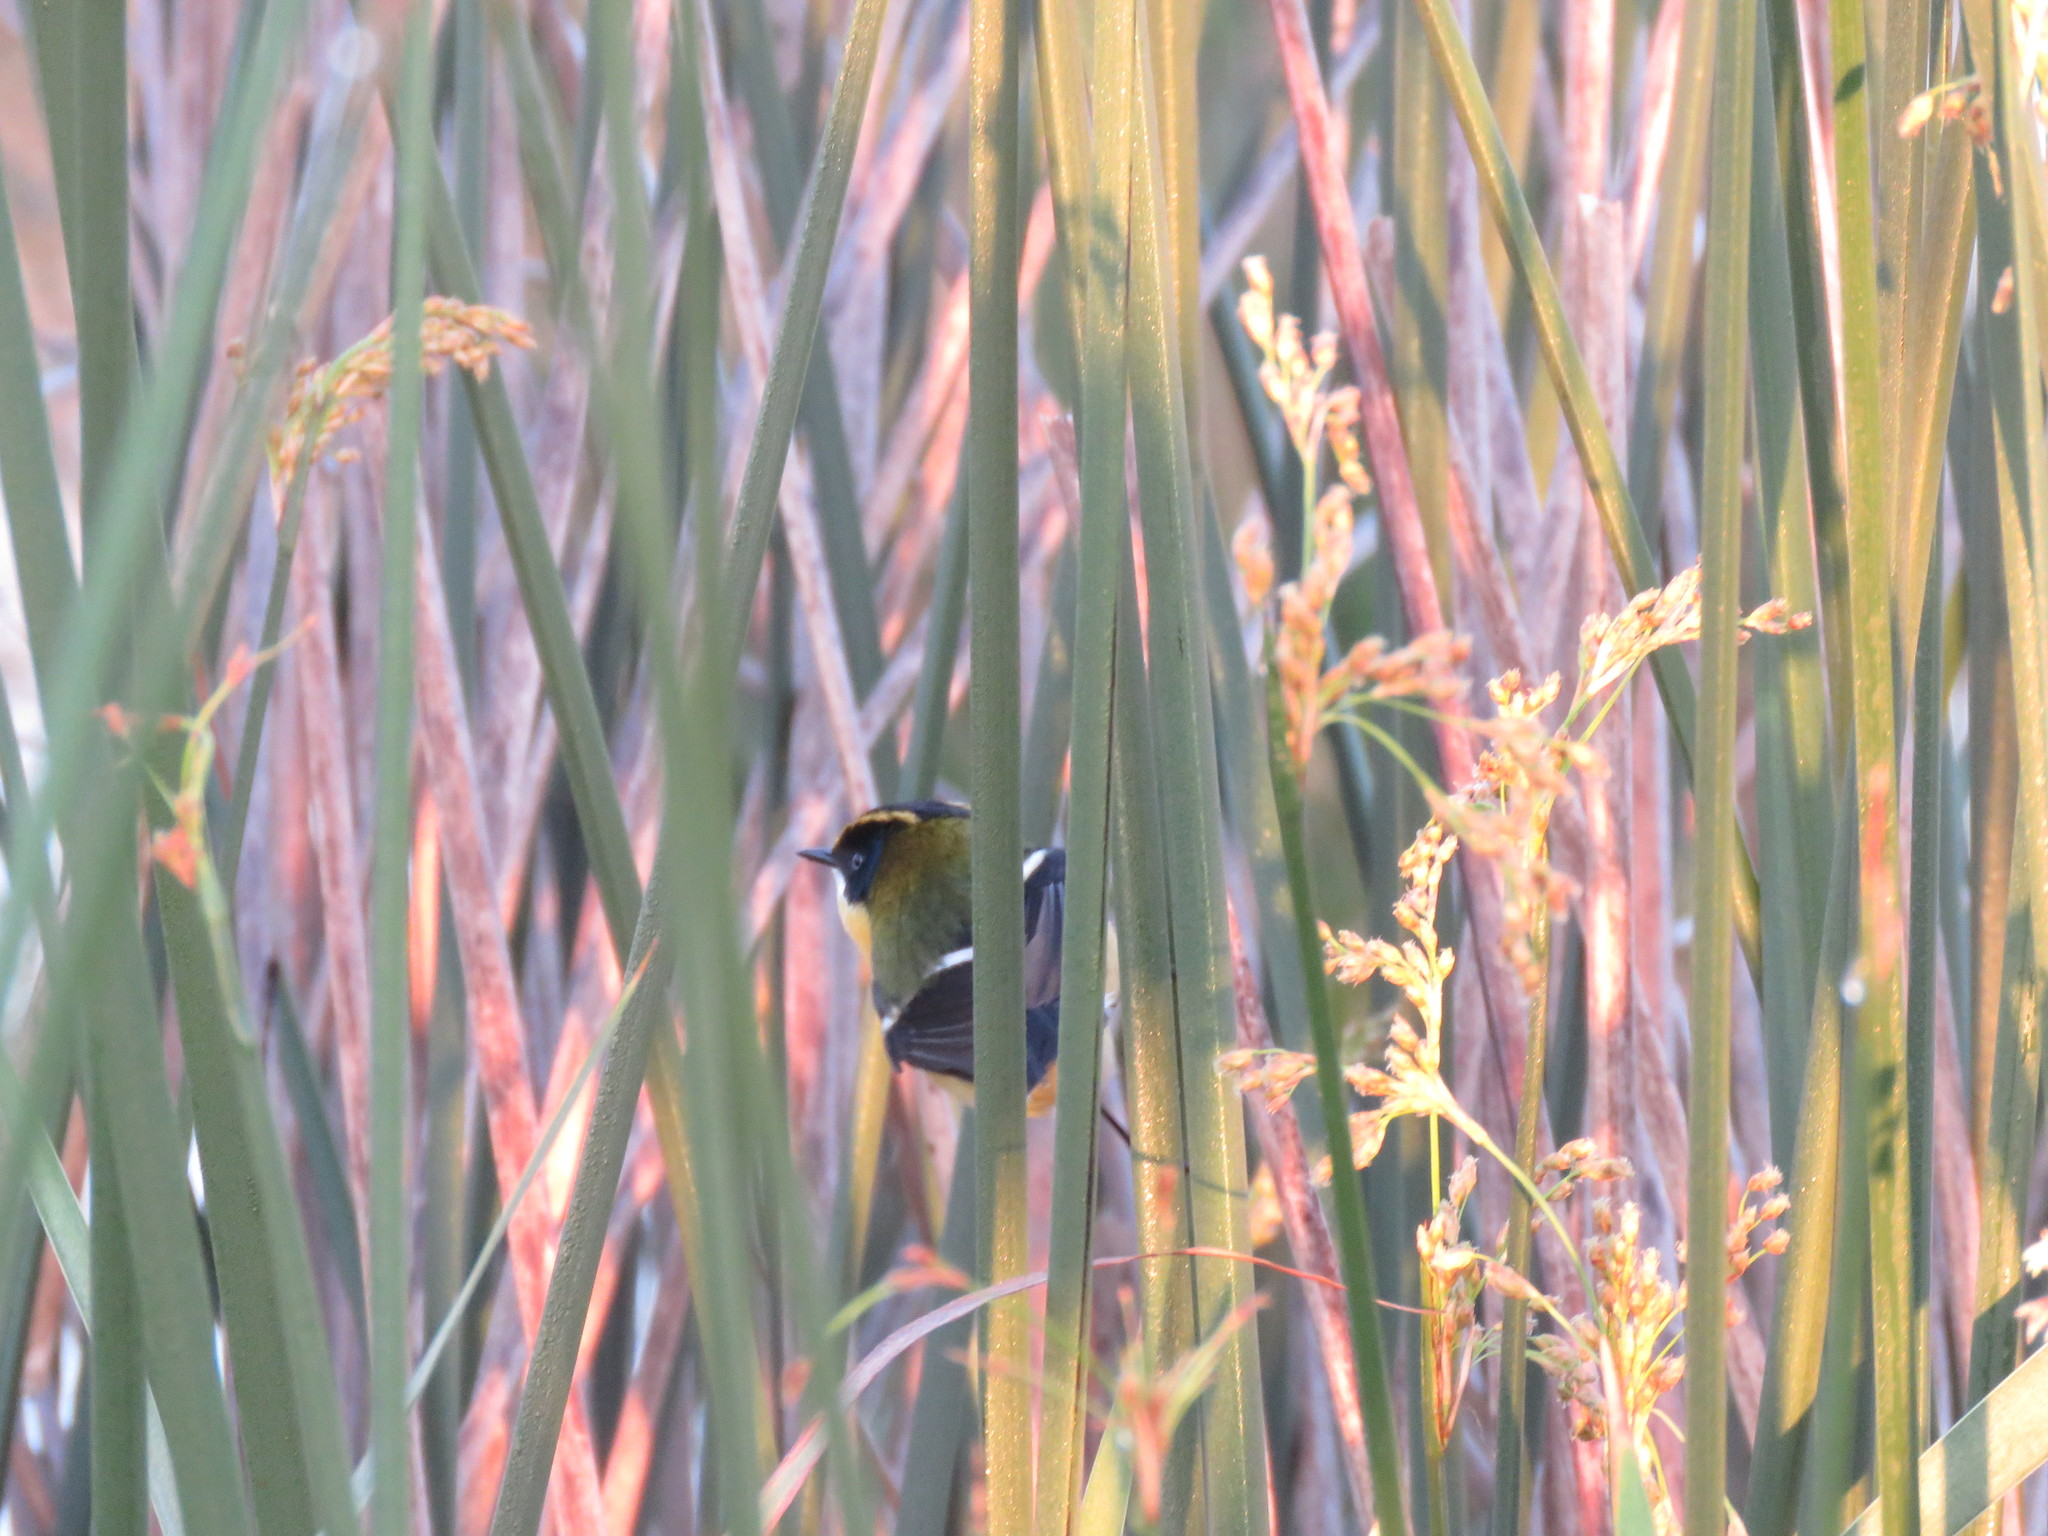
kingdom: Animalia
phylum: Chordata
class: Aves
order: Passeriformes
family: Tyrannidae
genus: Tachuris
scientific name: Tachuris rubrigastra
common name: Many-colored rush tyrant
